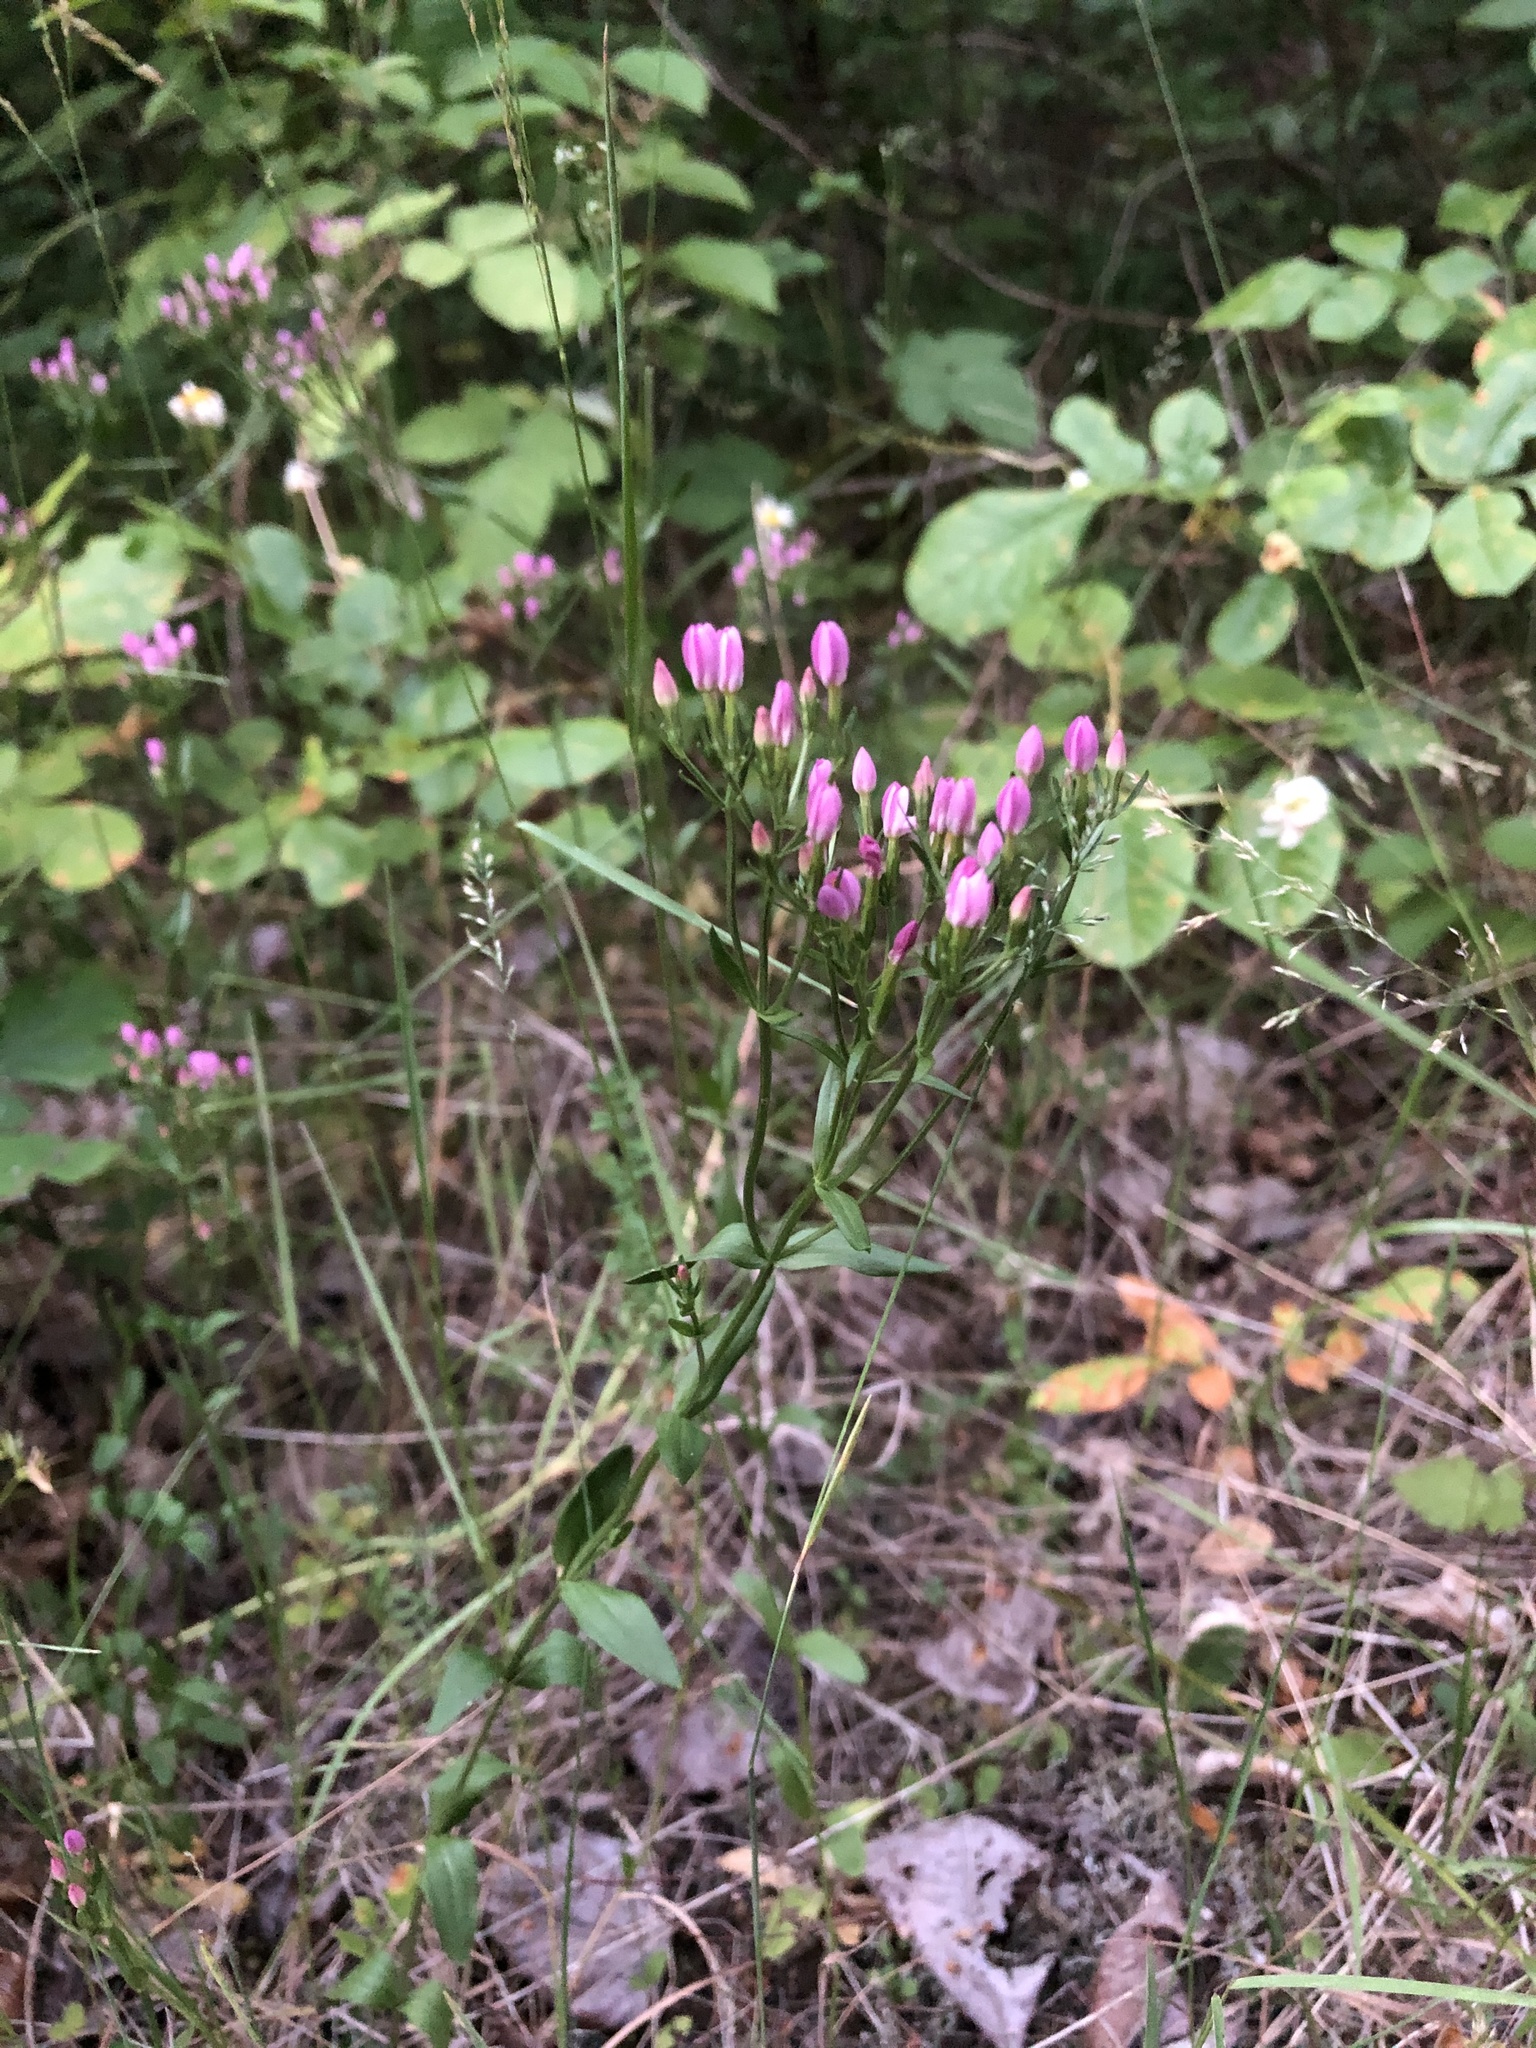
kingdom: Plantae
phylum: Tracheophyta
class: Magnoliopsida
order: Gentianales
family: Gentianaceae
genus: Centaurium
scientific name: Centaurium erythraea
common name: Common centaury
